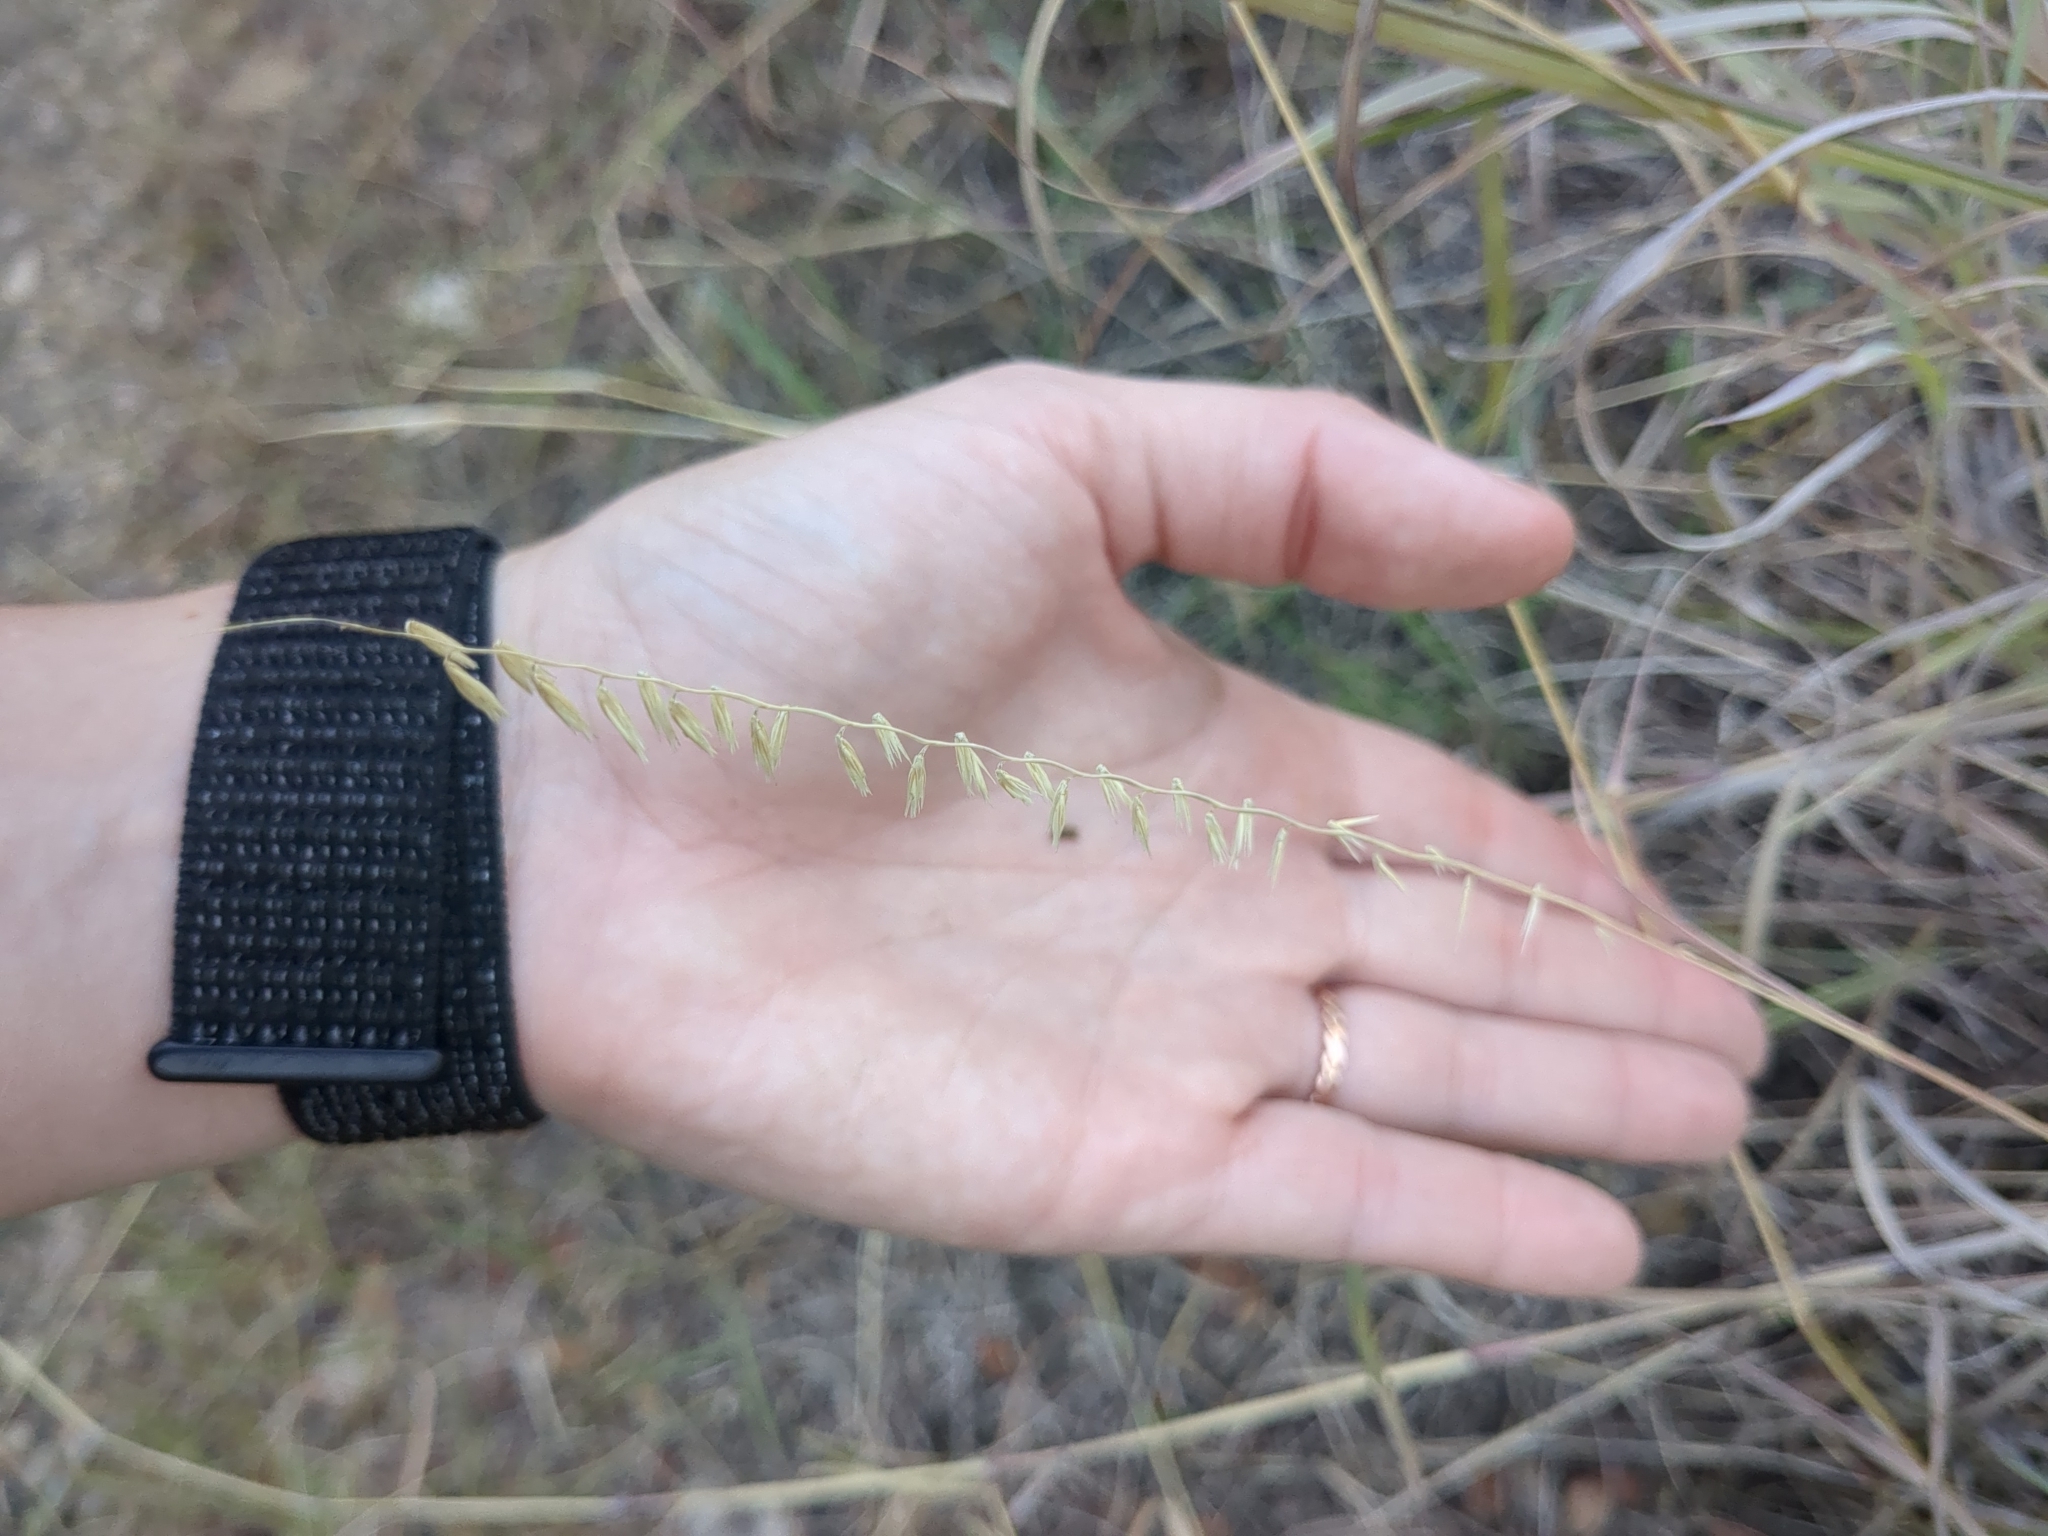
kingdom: Plantae
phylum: Tracheophyta
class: Liliopsida
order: Poales
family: Poaceae
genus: Bouteloua
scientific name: Bouteloua curtipendula
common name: Side-oats grama
